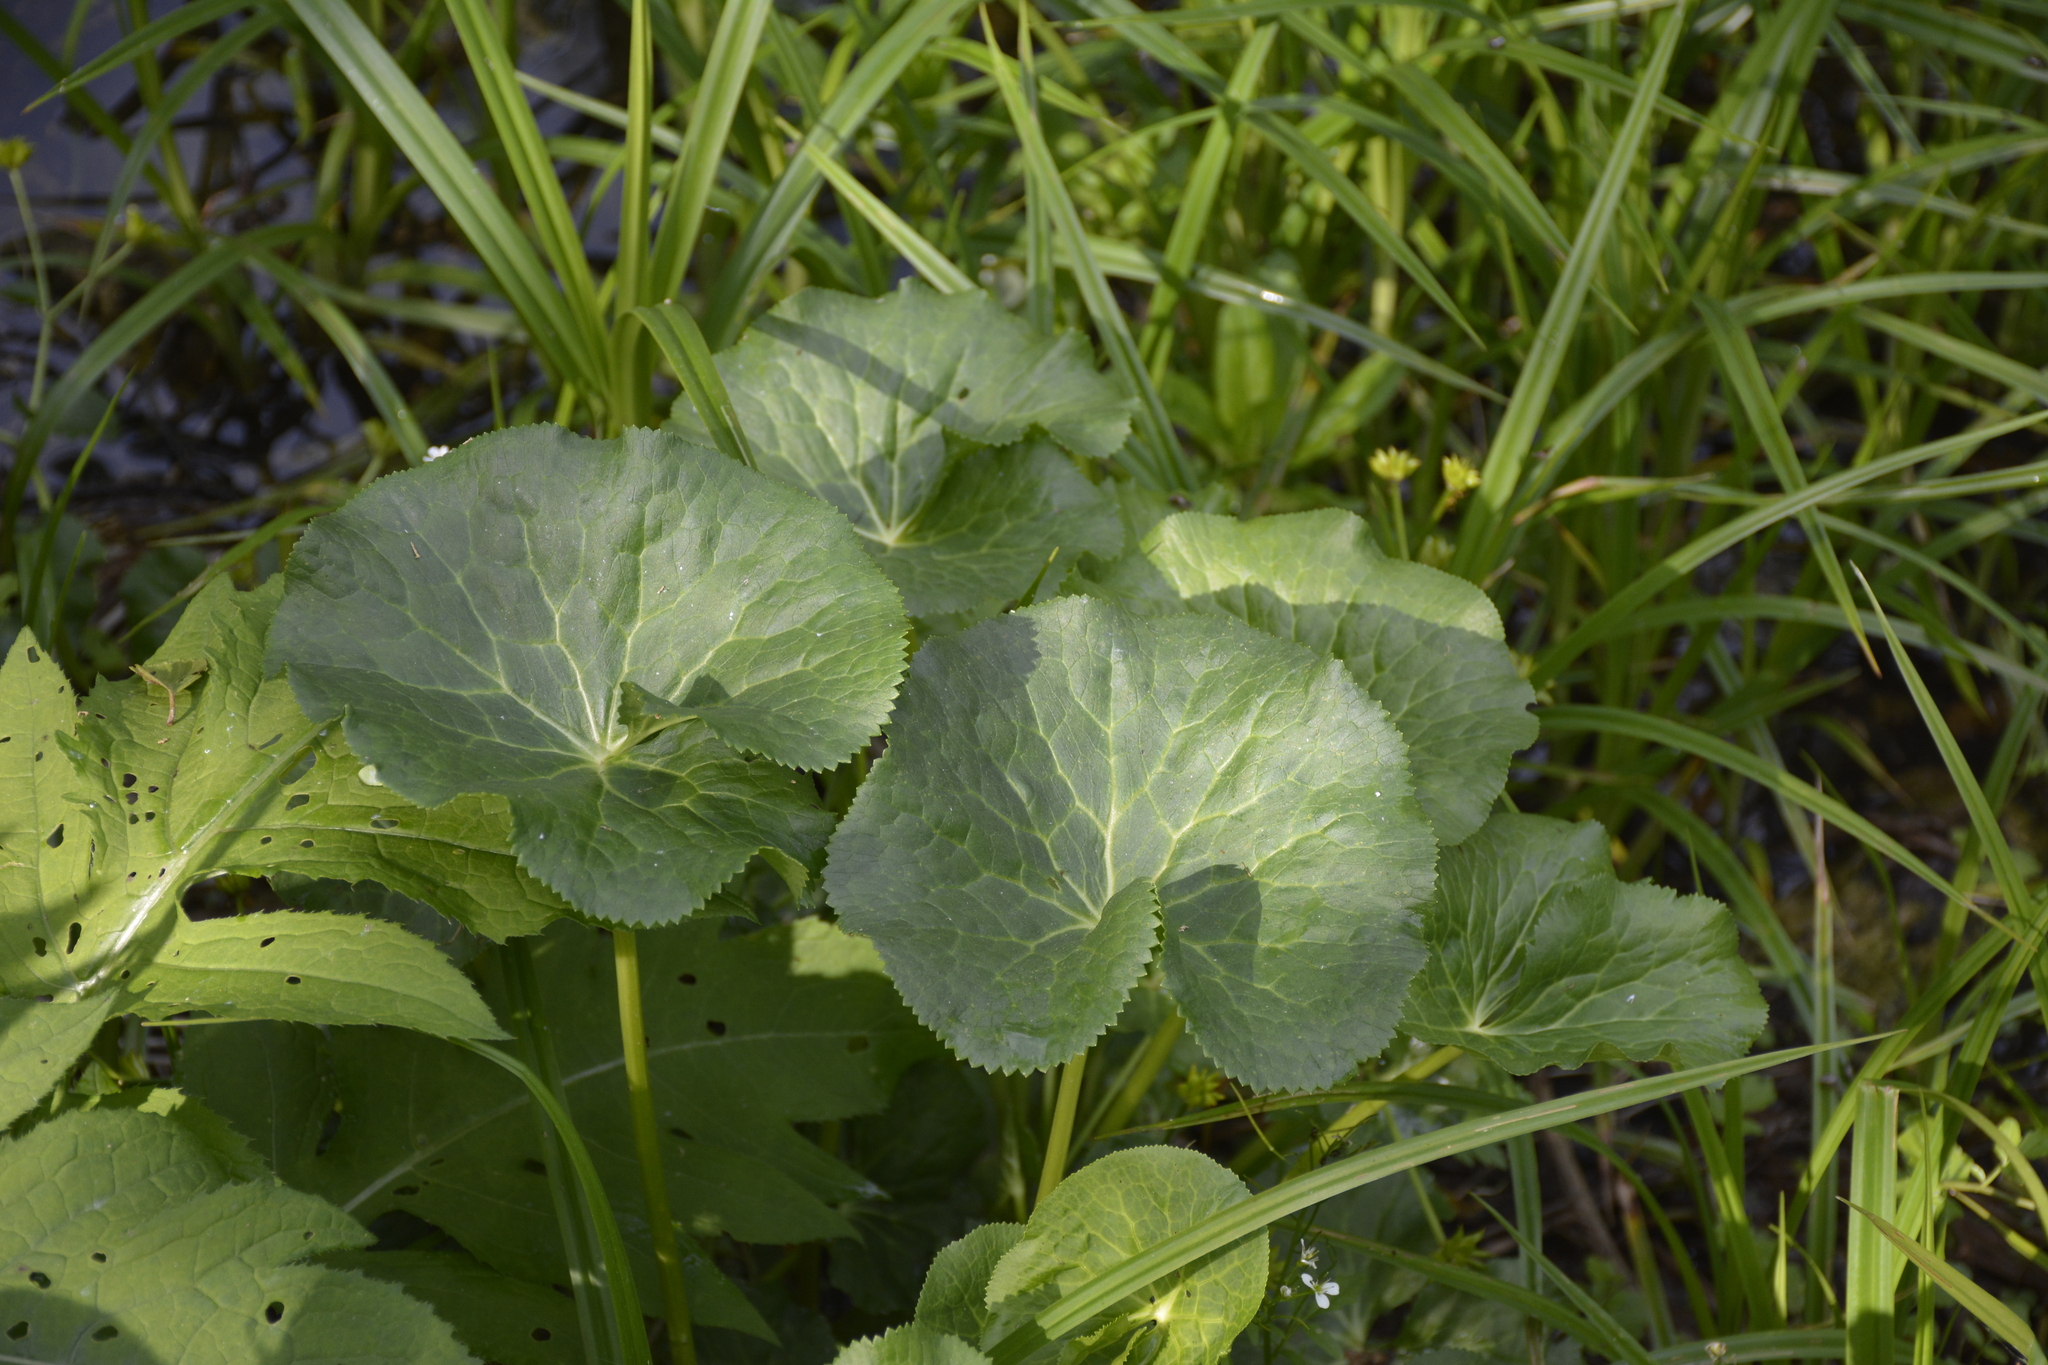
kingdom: Plantae
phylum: Tracheophyta
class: Magnoliopsida
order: Ranunculales
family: Ranunculaceae
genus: Caltha
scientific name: Caltha palustris
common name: Marsh marigold
